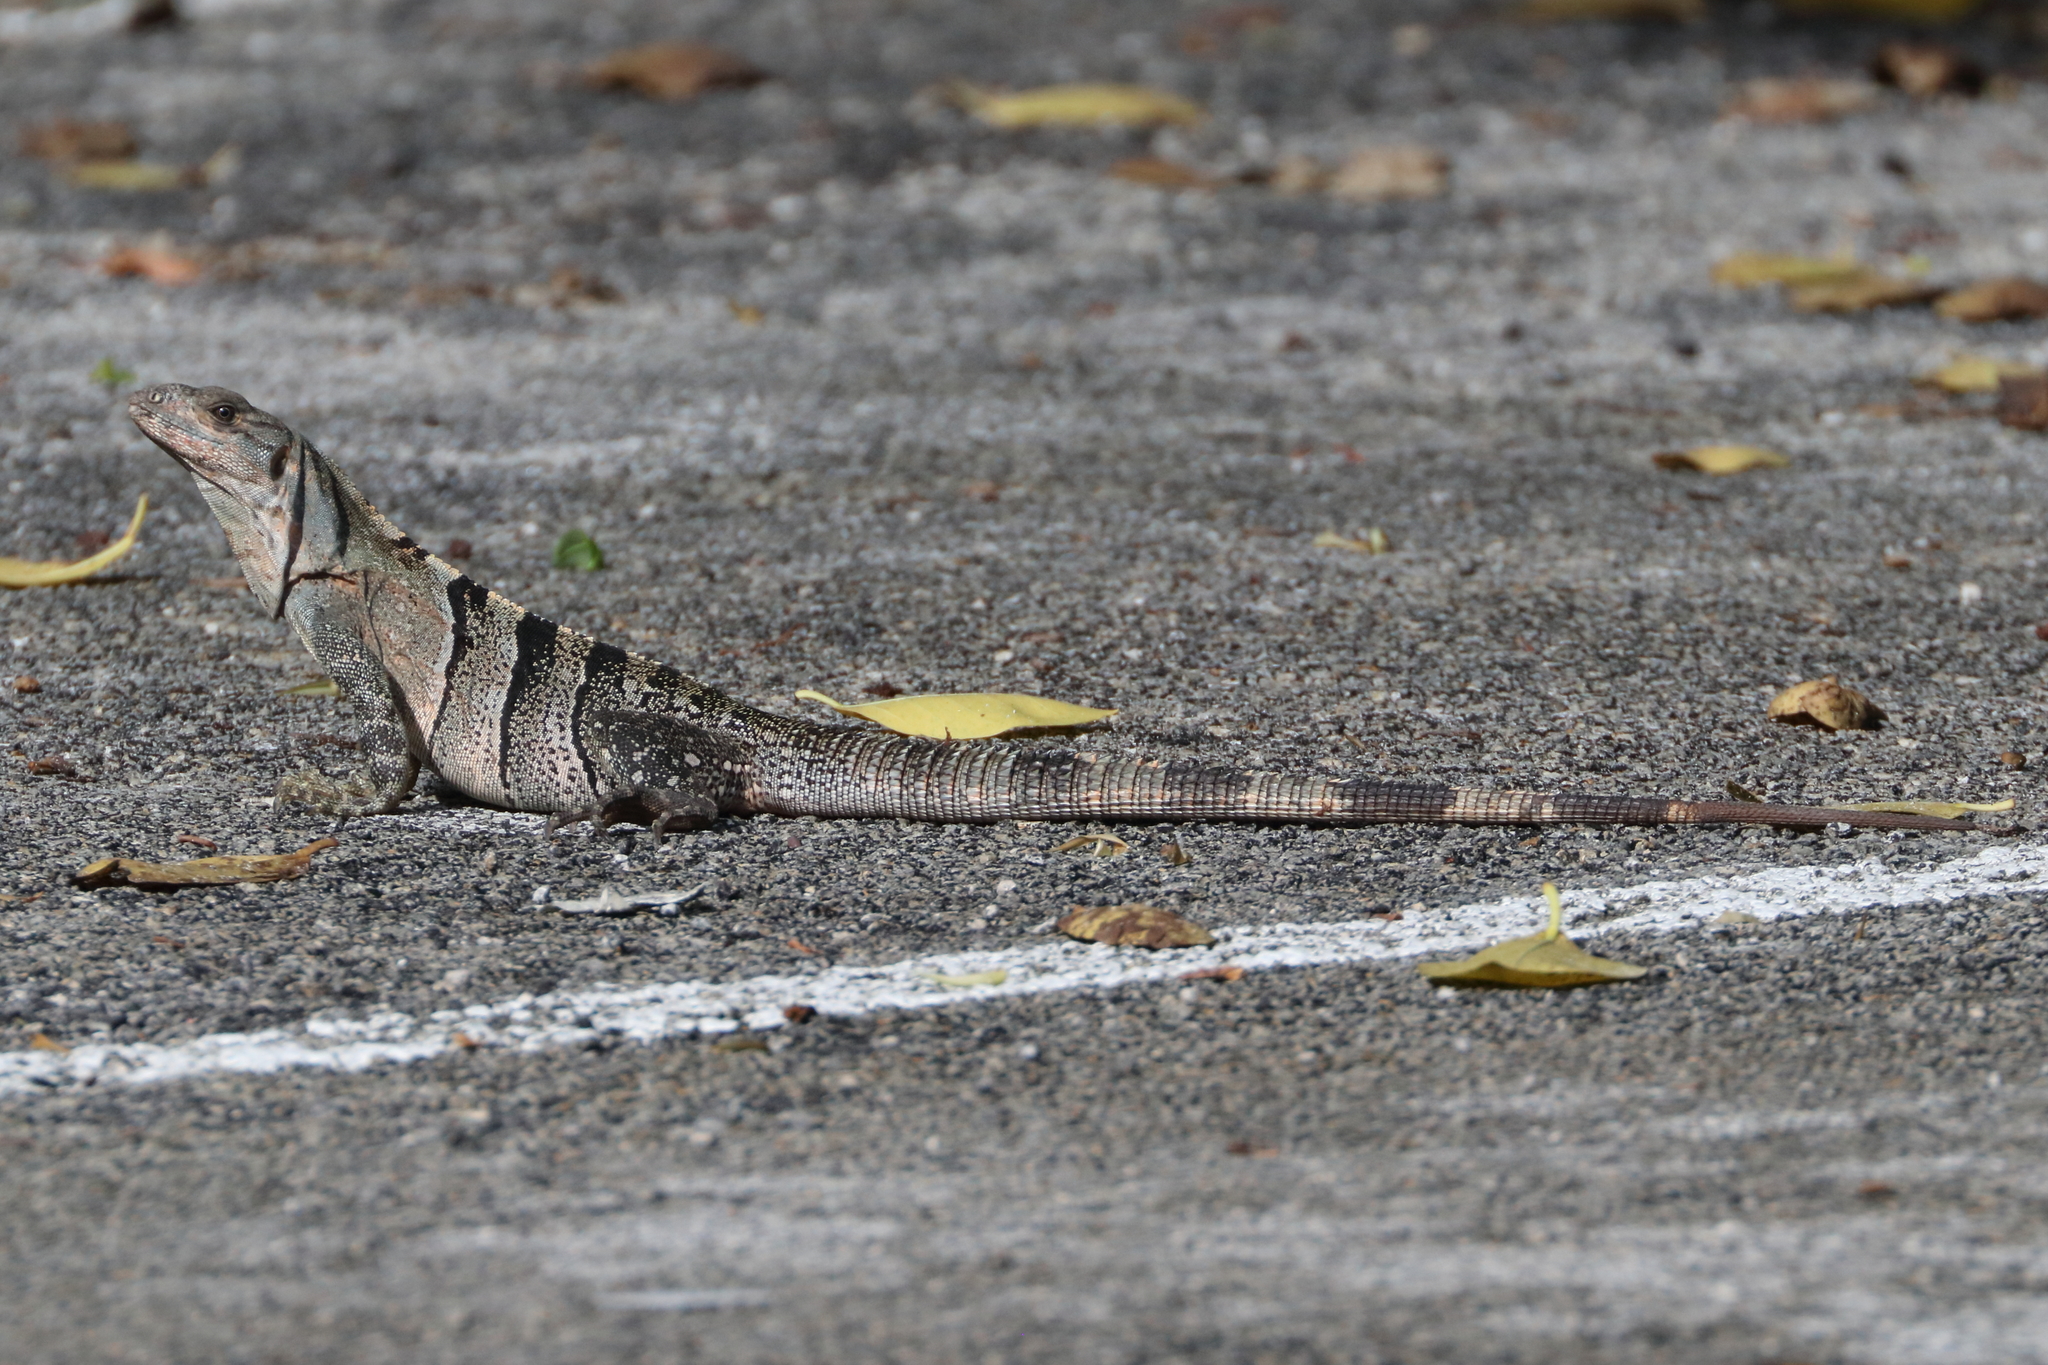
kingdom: Animalia
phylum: Chordata
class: Squamata
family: Iguanidae
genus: Ctenosaura
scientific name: Ctenosaura similis
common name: Black spiny-tailed iguana
